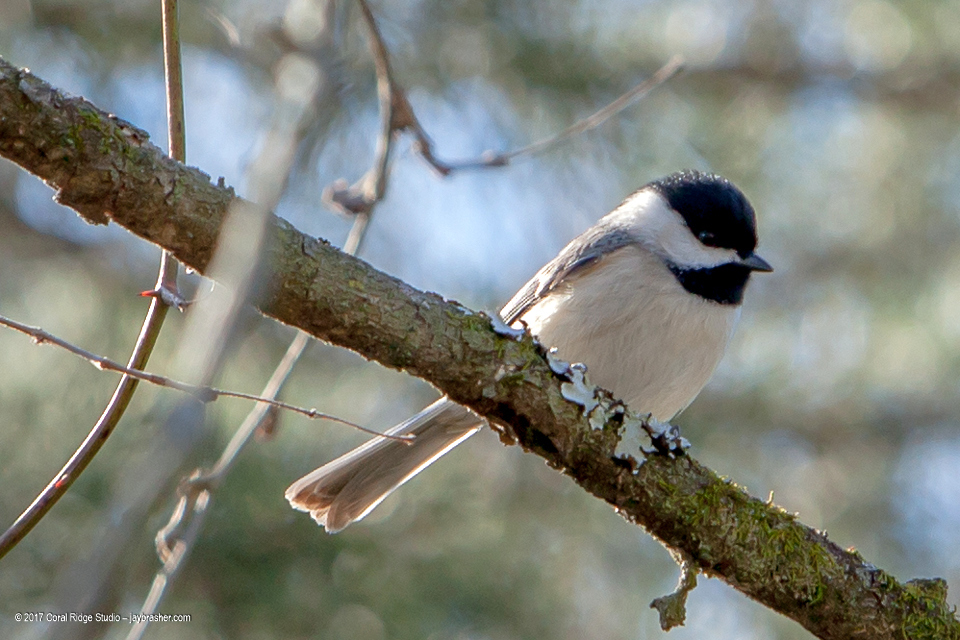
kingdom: Animalia
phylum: Chordata
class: Aves
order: Passeriformes
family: Paridae
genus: Poecile
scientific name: Poecile carolinensis
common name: Carolina chickadee
